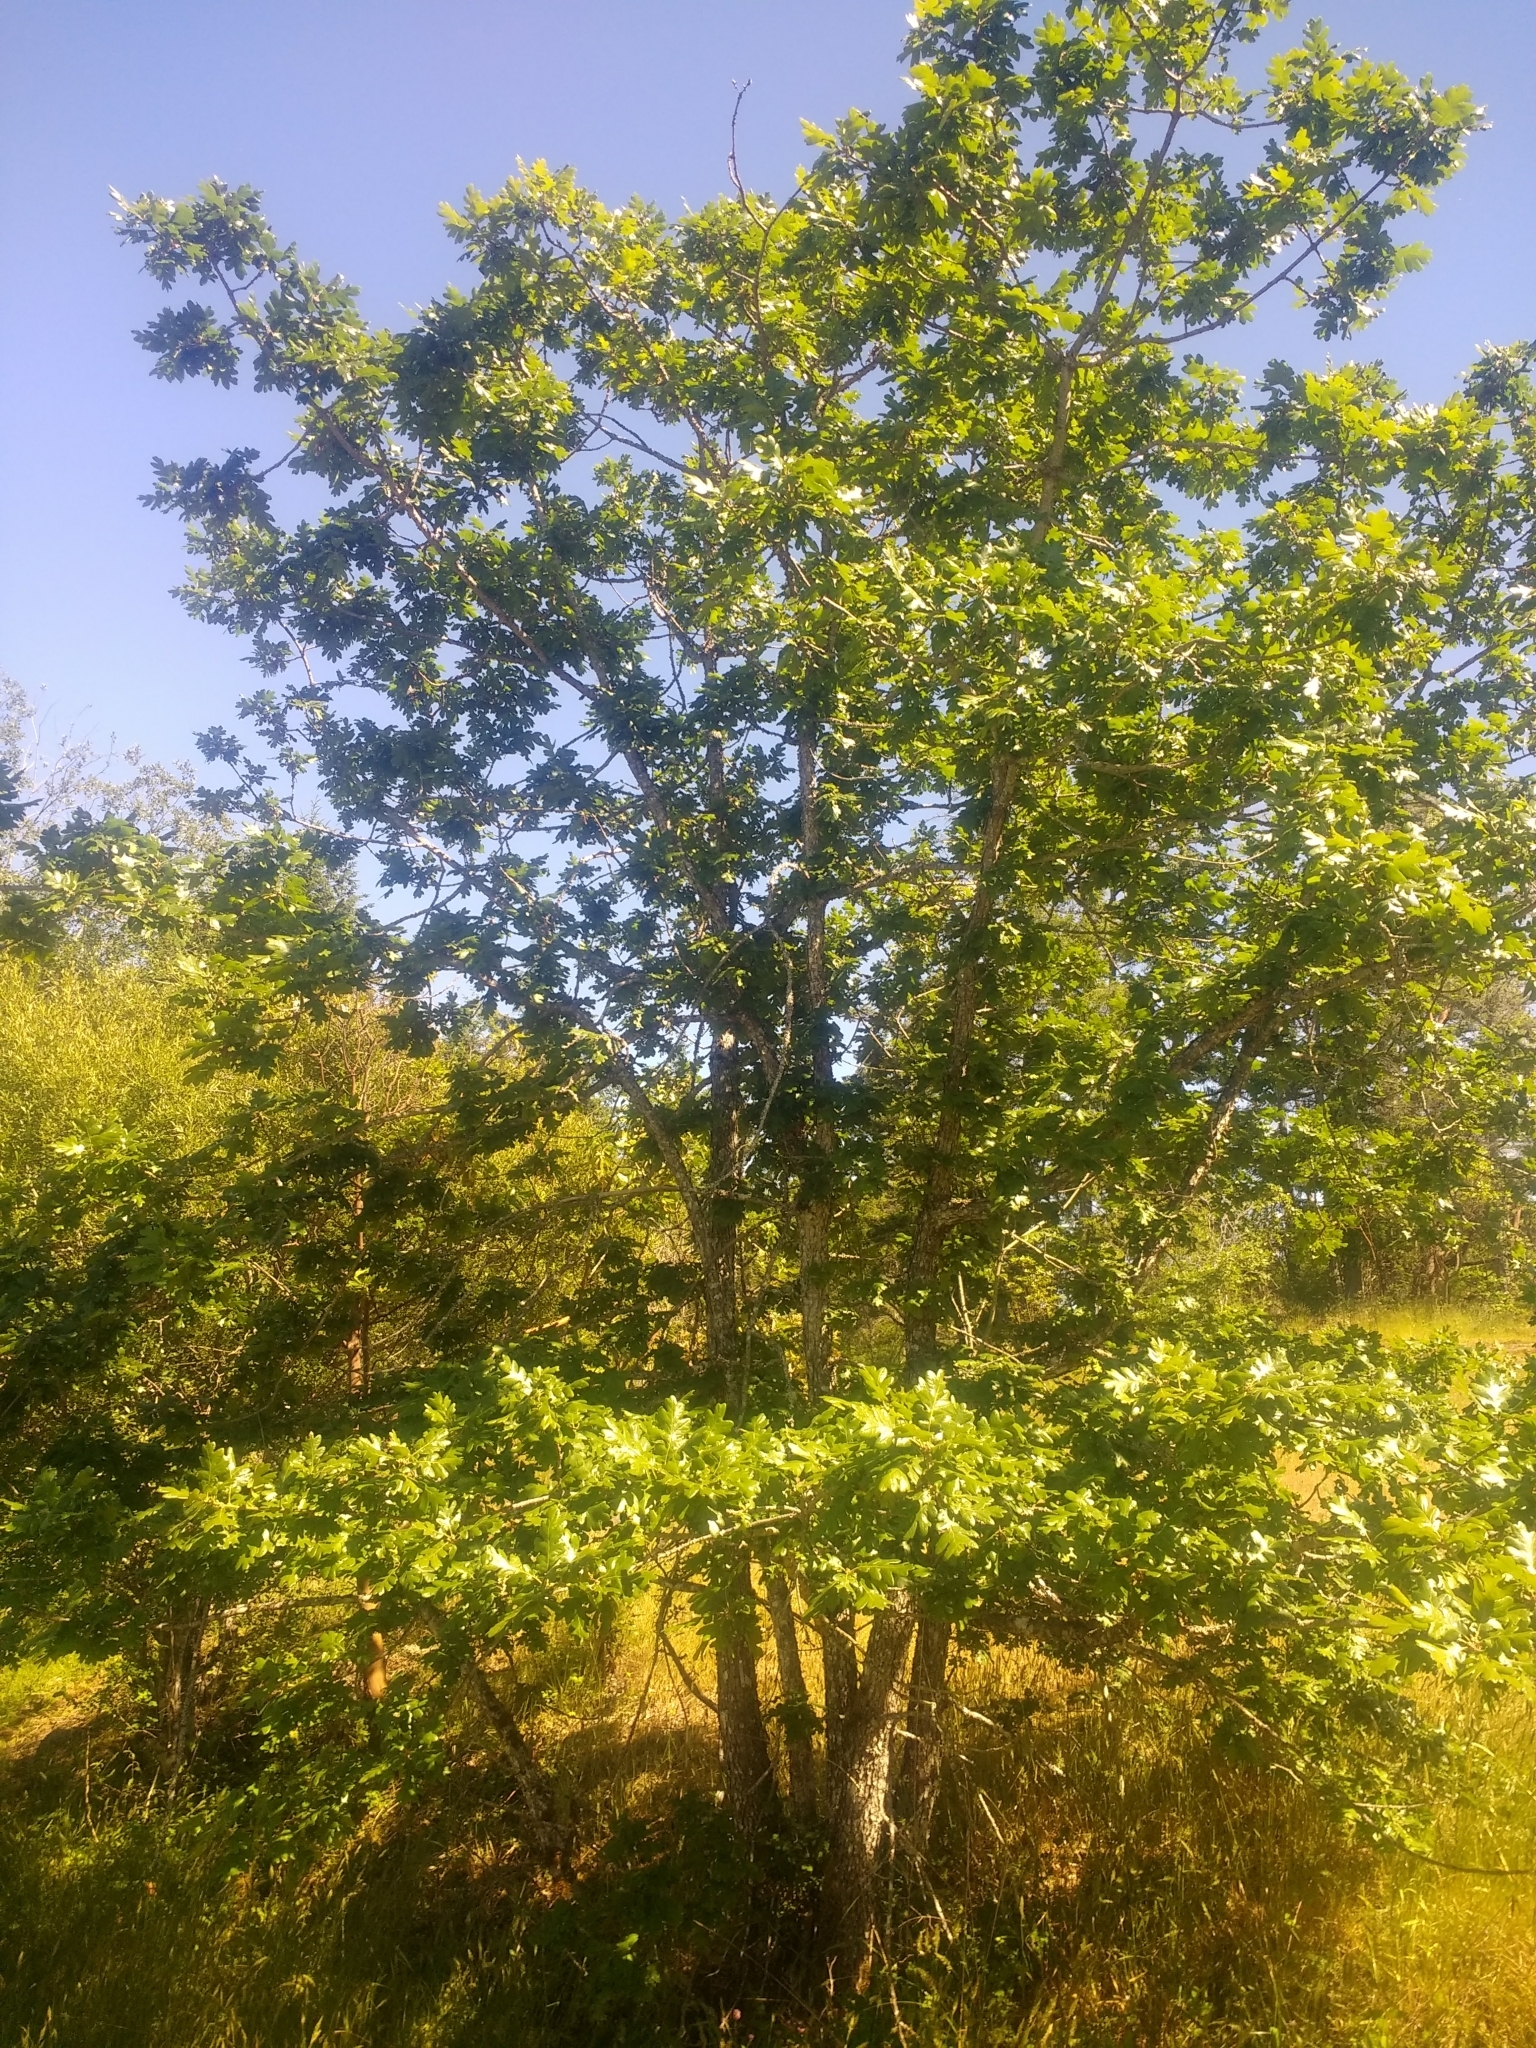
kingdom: Plantae
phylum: Tracheophyta
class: Magnoliopsida
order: Fagales
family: Fagaceae
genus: Quercus
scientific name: Quercus garryana
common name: Garry oak
